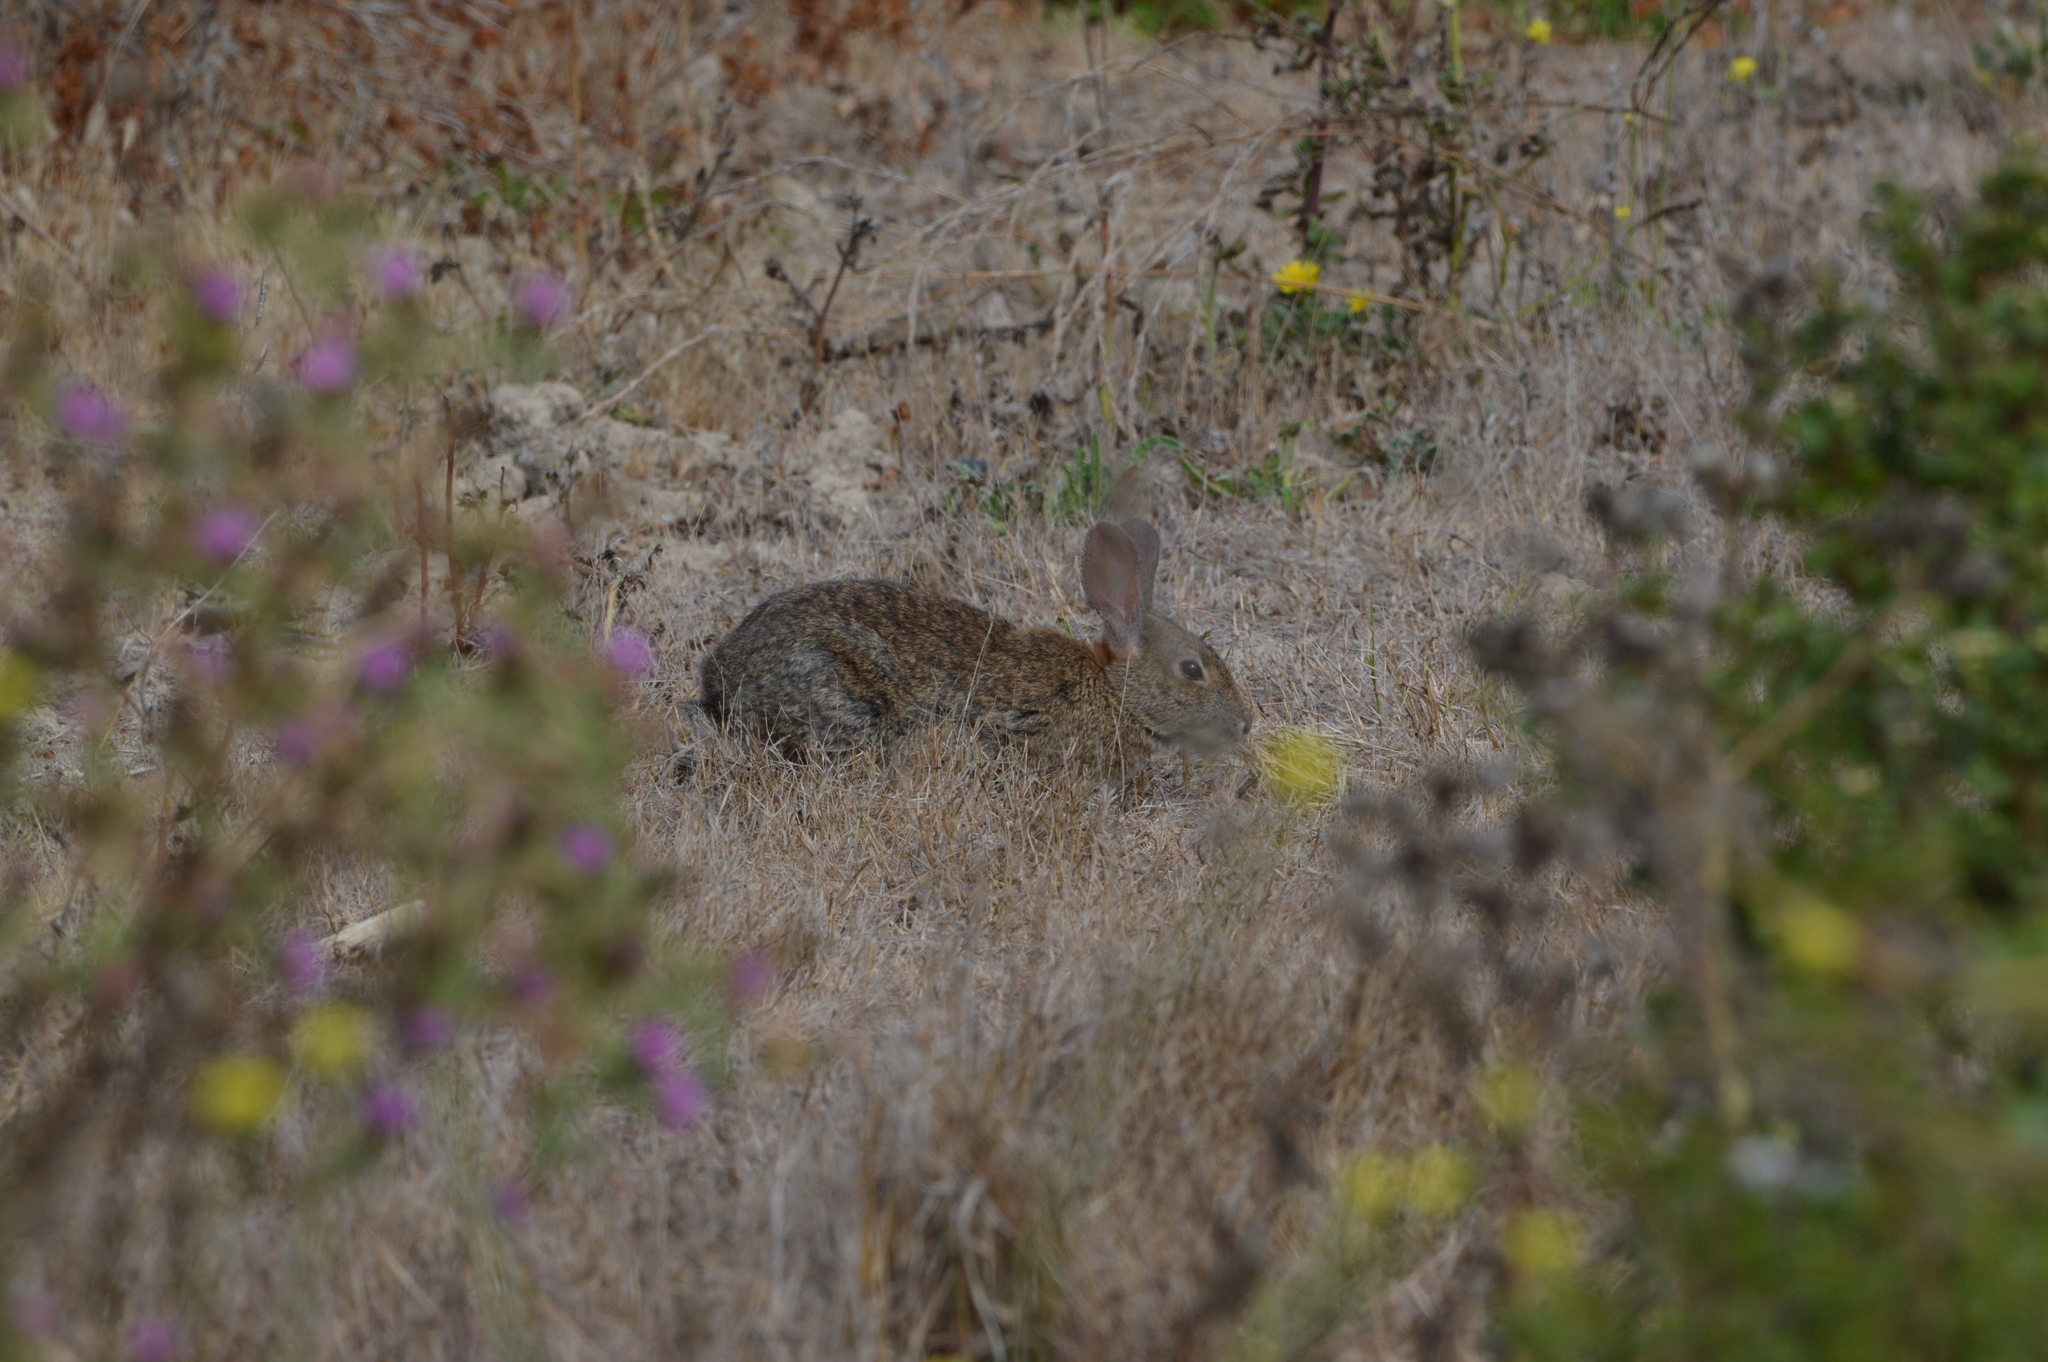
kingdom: Animalia
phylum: Chordata
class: Mammalia
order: Lagomorpha
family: Leporidae
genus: Sylvilagus
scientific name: Sylvilagus bachmani
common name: Brush rabbit
